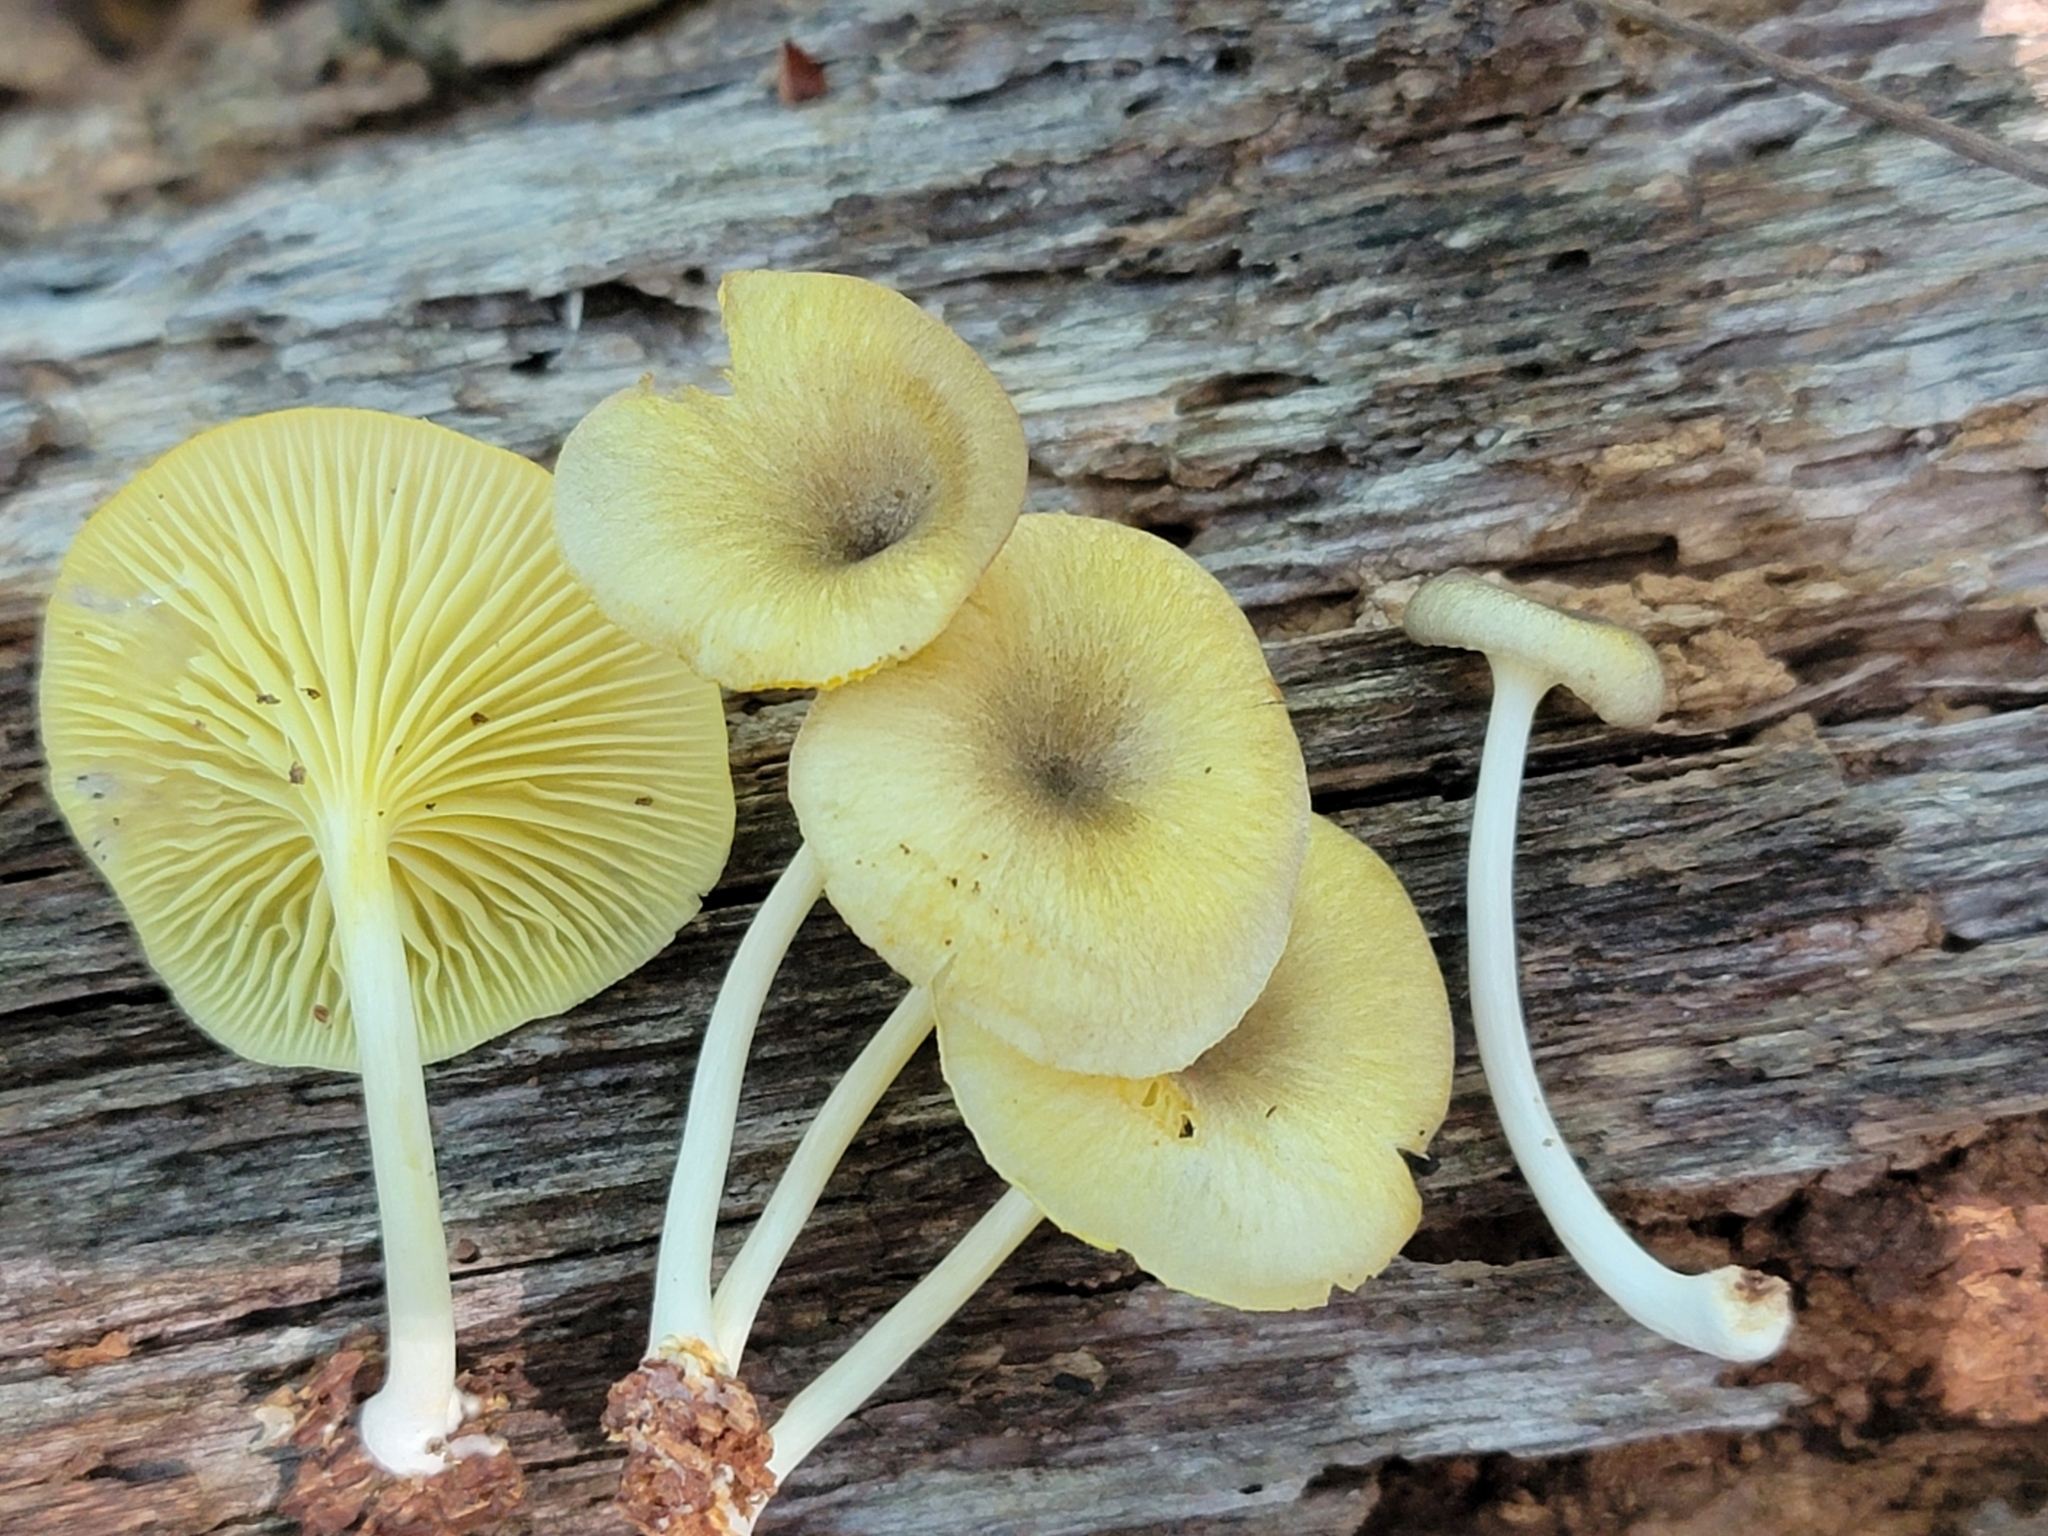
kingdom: Fungi
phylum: Basidiomycota
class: Agaricomycetes
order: Agaricales
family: Marasmiaceae
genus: Gerronema
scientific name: Gerronema strombodes
